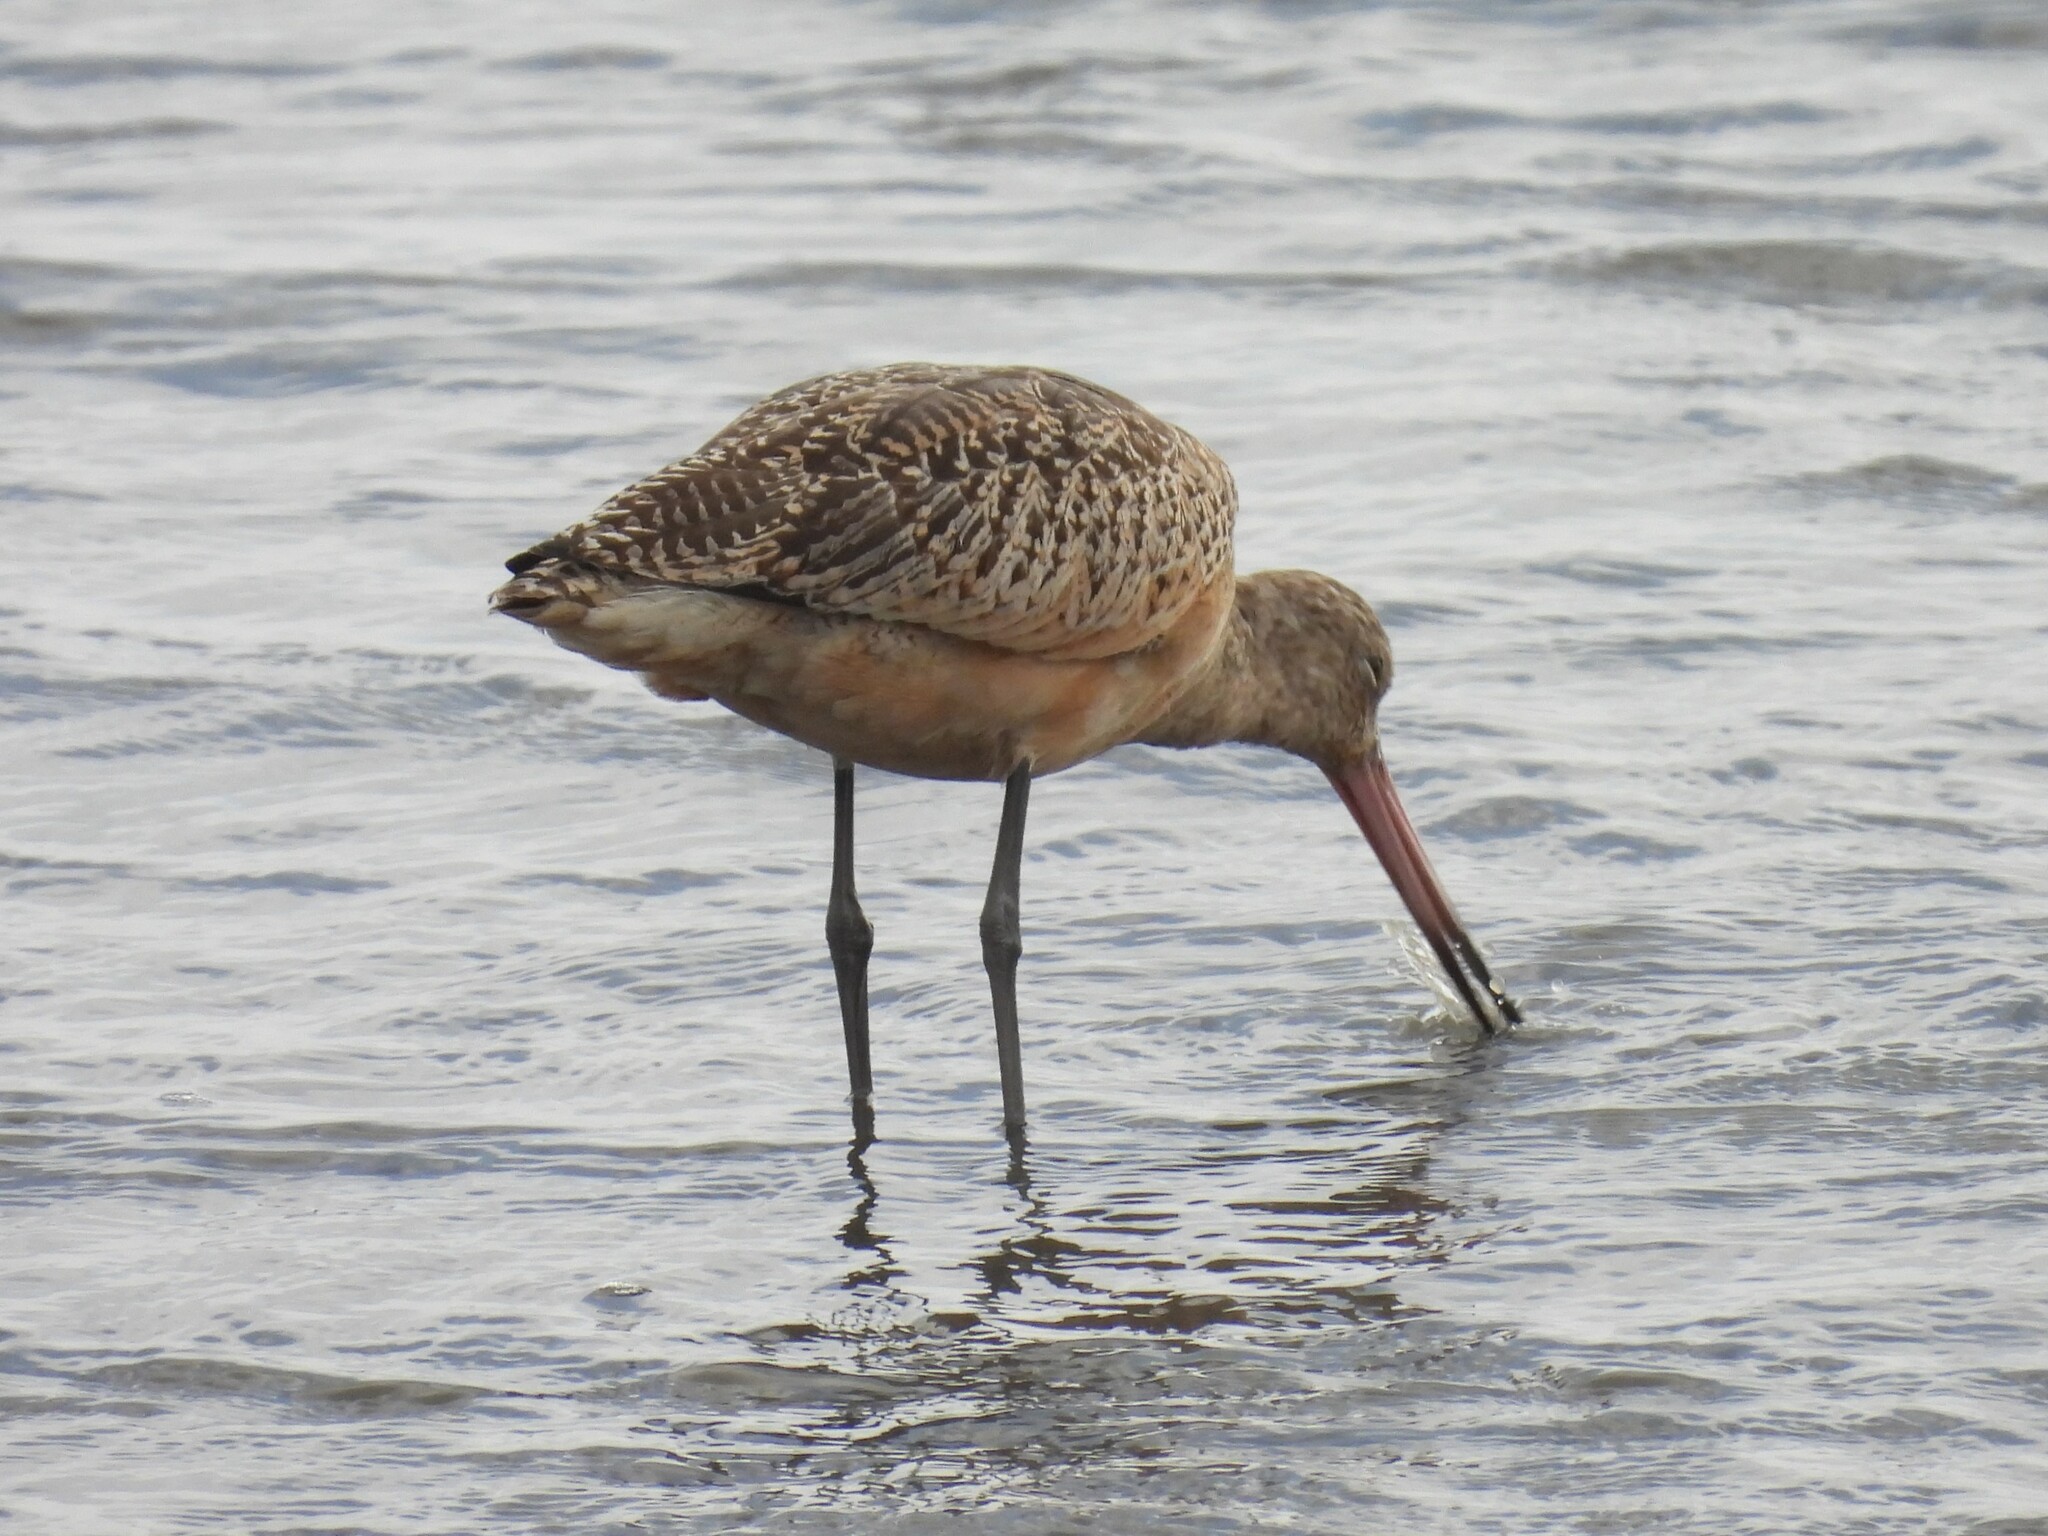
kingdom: Animalia
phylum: Chordata
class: Aves
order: Charadriiformes
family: Scolopacidae
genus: Limosa
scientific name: Limosa fedoa
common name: Marbled godwit
